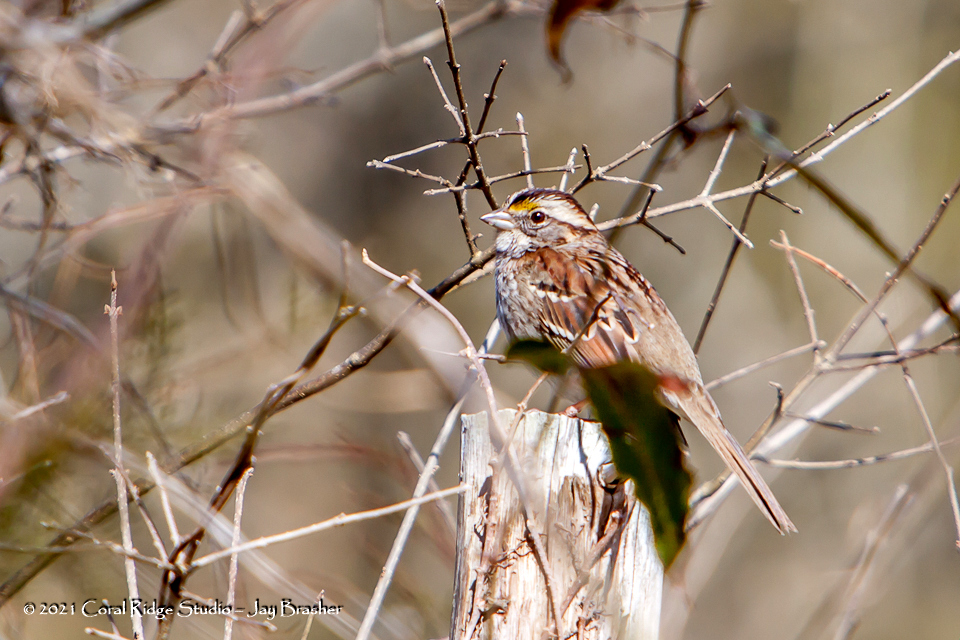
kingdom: Animalia
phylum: Chordata
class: Aves
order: Passeriformes
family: Passerellidae
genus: Zonotrichia
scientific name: Zonotrichia albicollis
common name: White-throated sparrow
